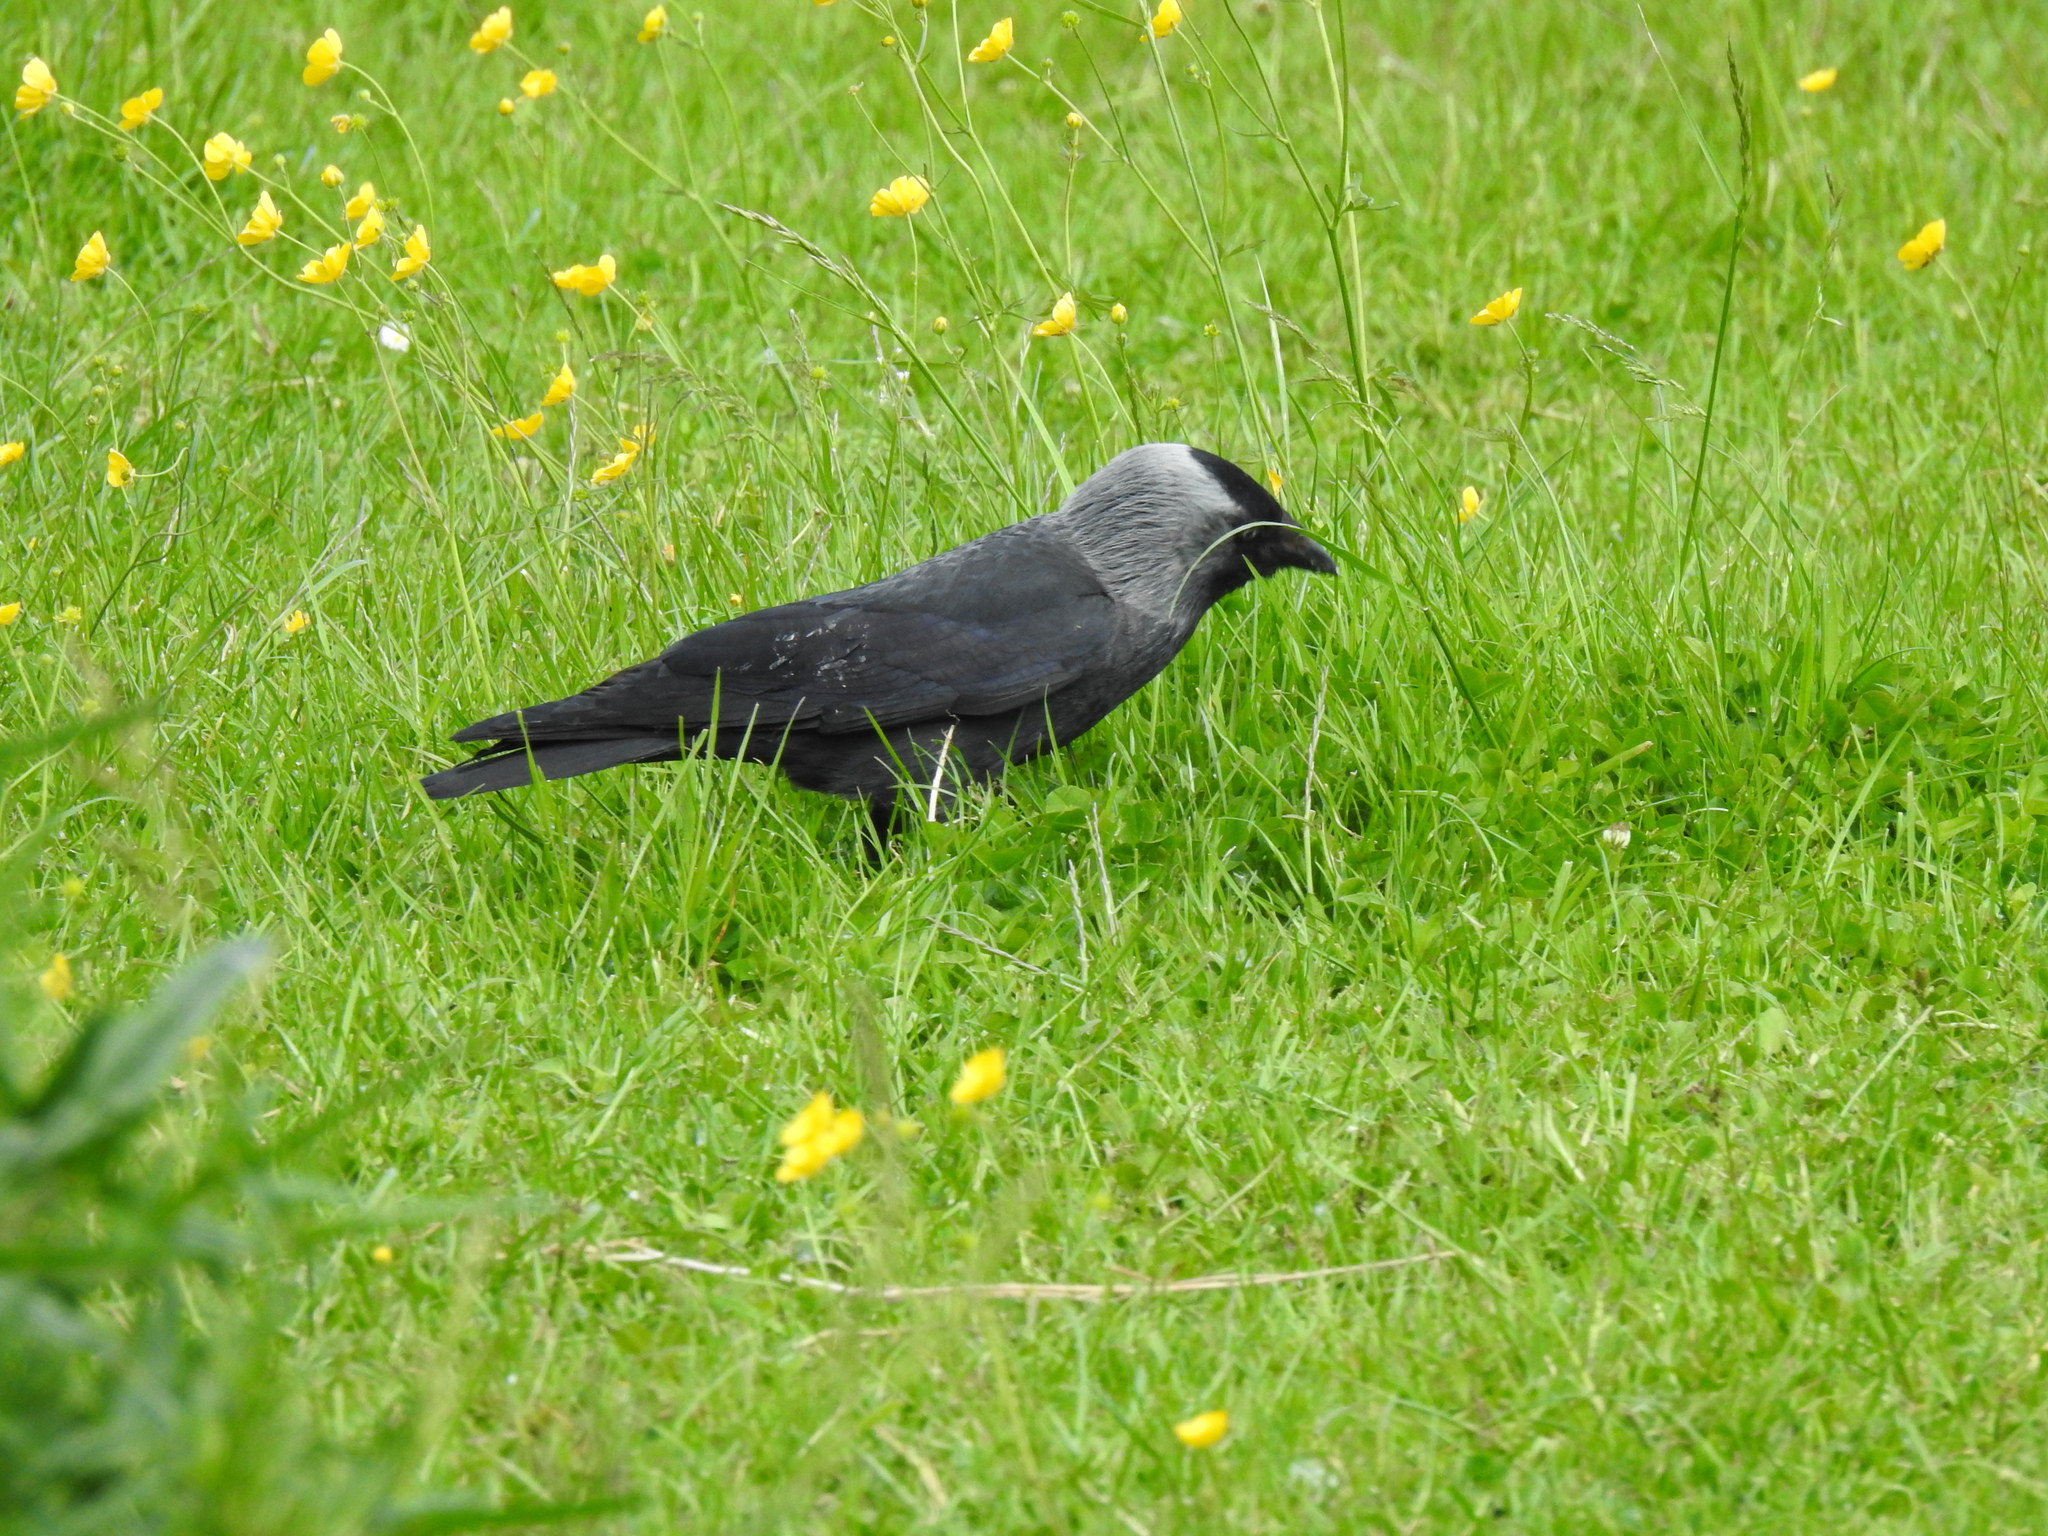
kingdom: Animalia
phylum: Chordata
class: Aves
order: Passeriformes
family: Corvidae
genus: Coloeus
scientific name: Coloeus monedula
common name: Western jackdaw
